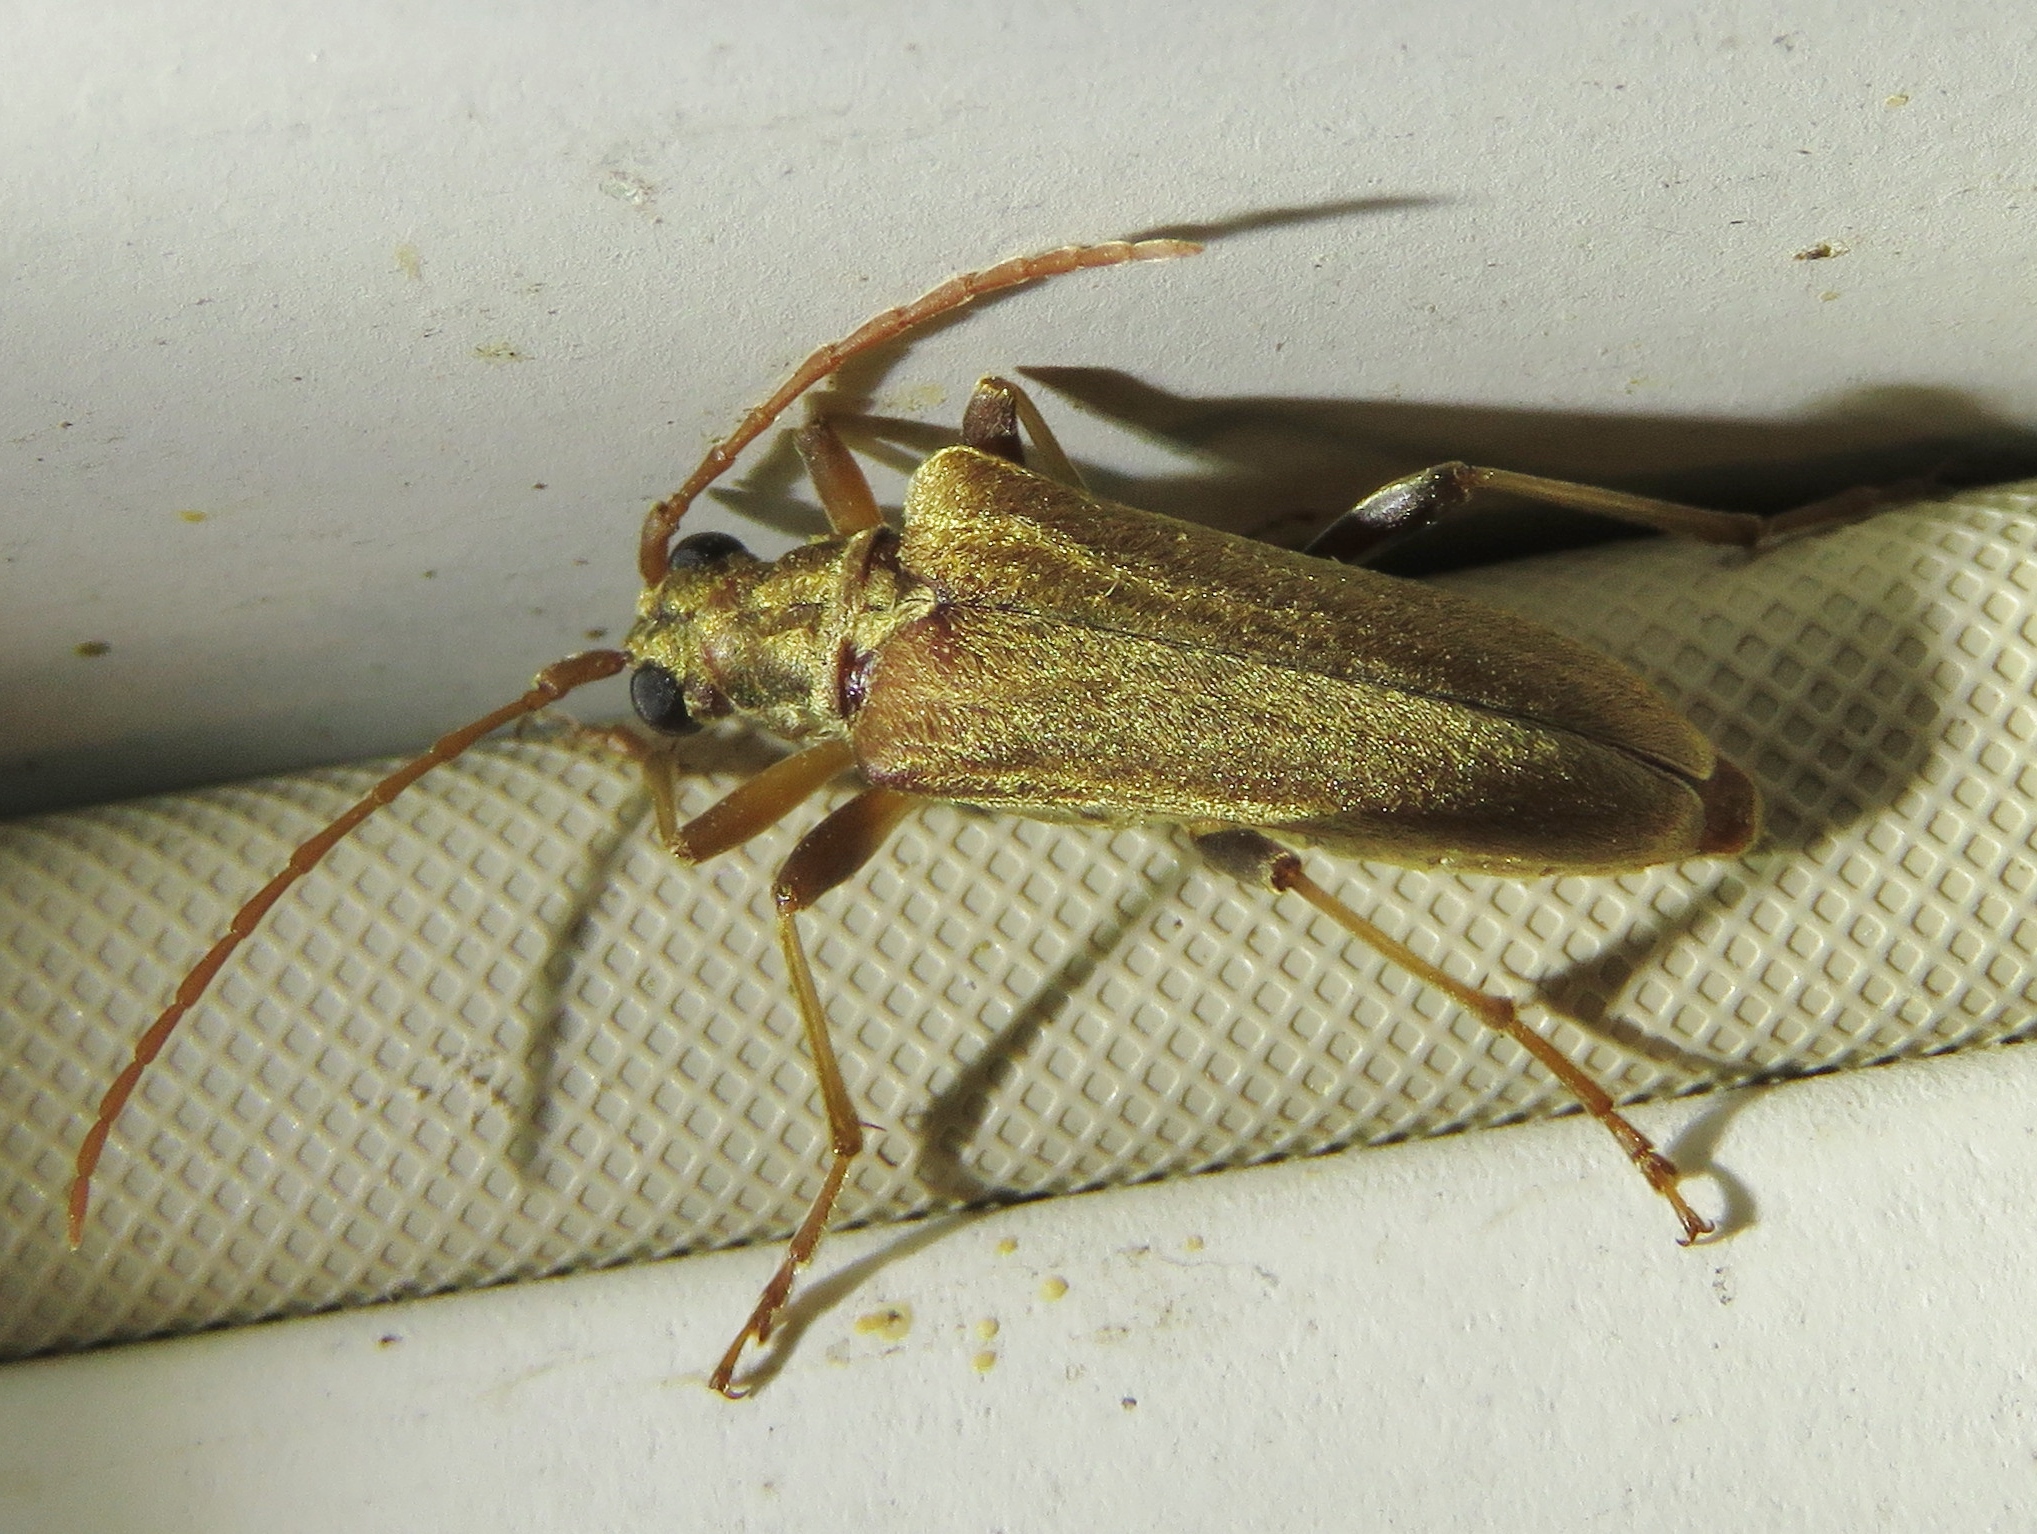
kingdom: Animalia
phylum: Arthropoda
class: Insecta
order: Coleoptera
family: Cerambycidae
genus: Stenocorus
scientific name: Stenocorus cinnamopterus
